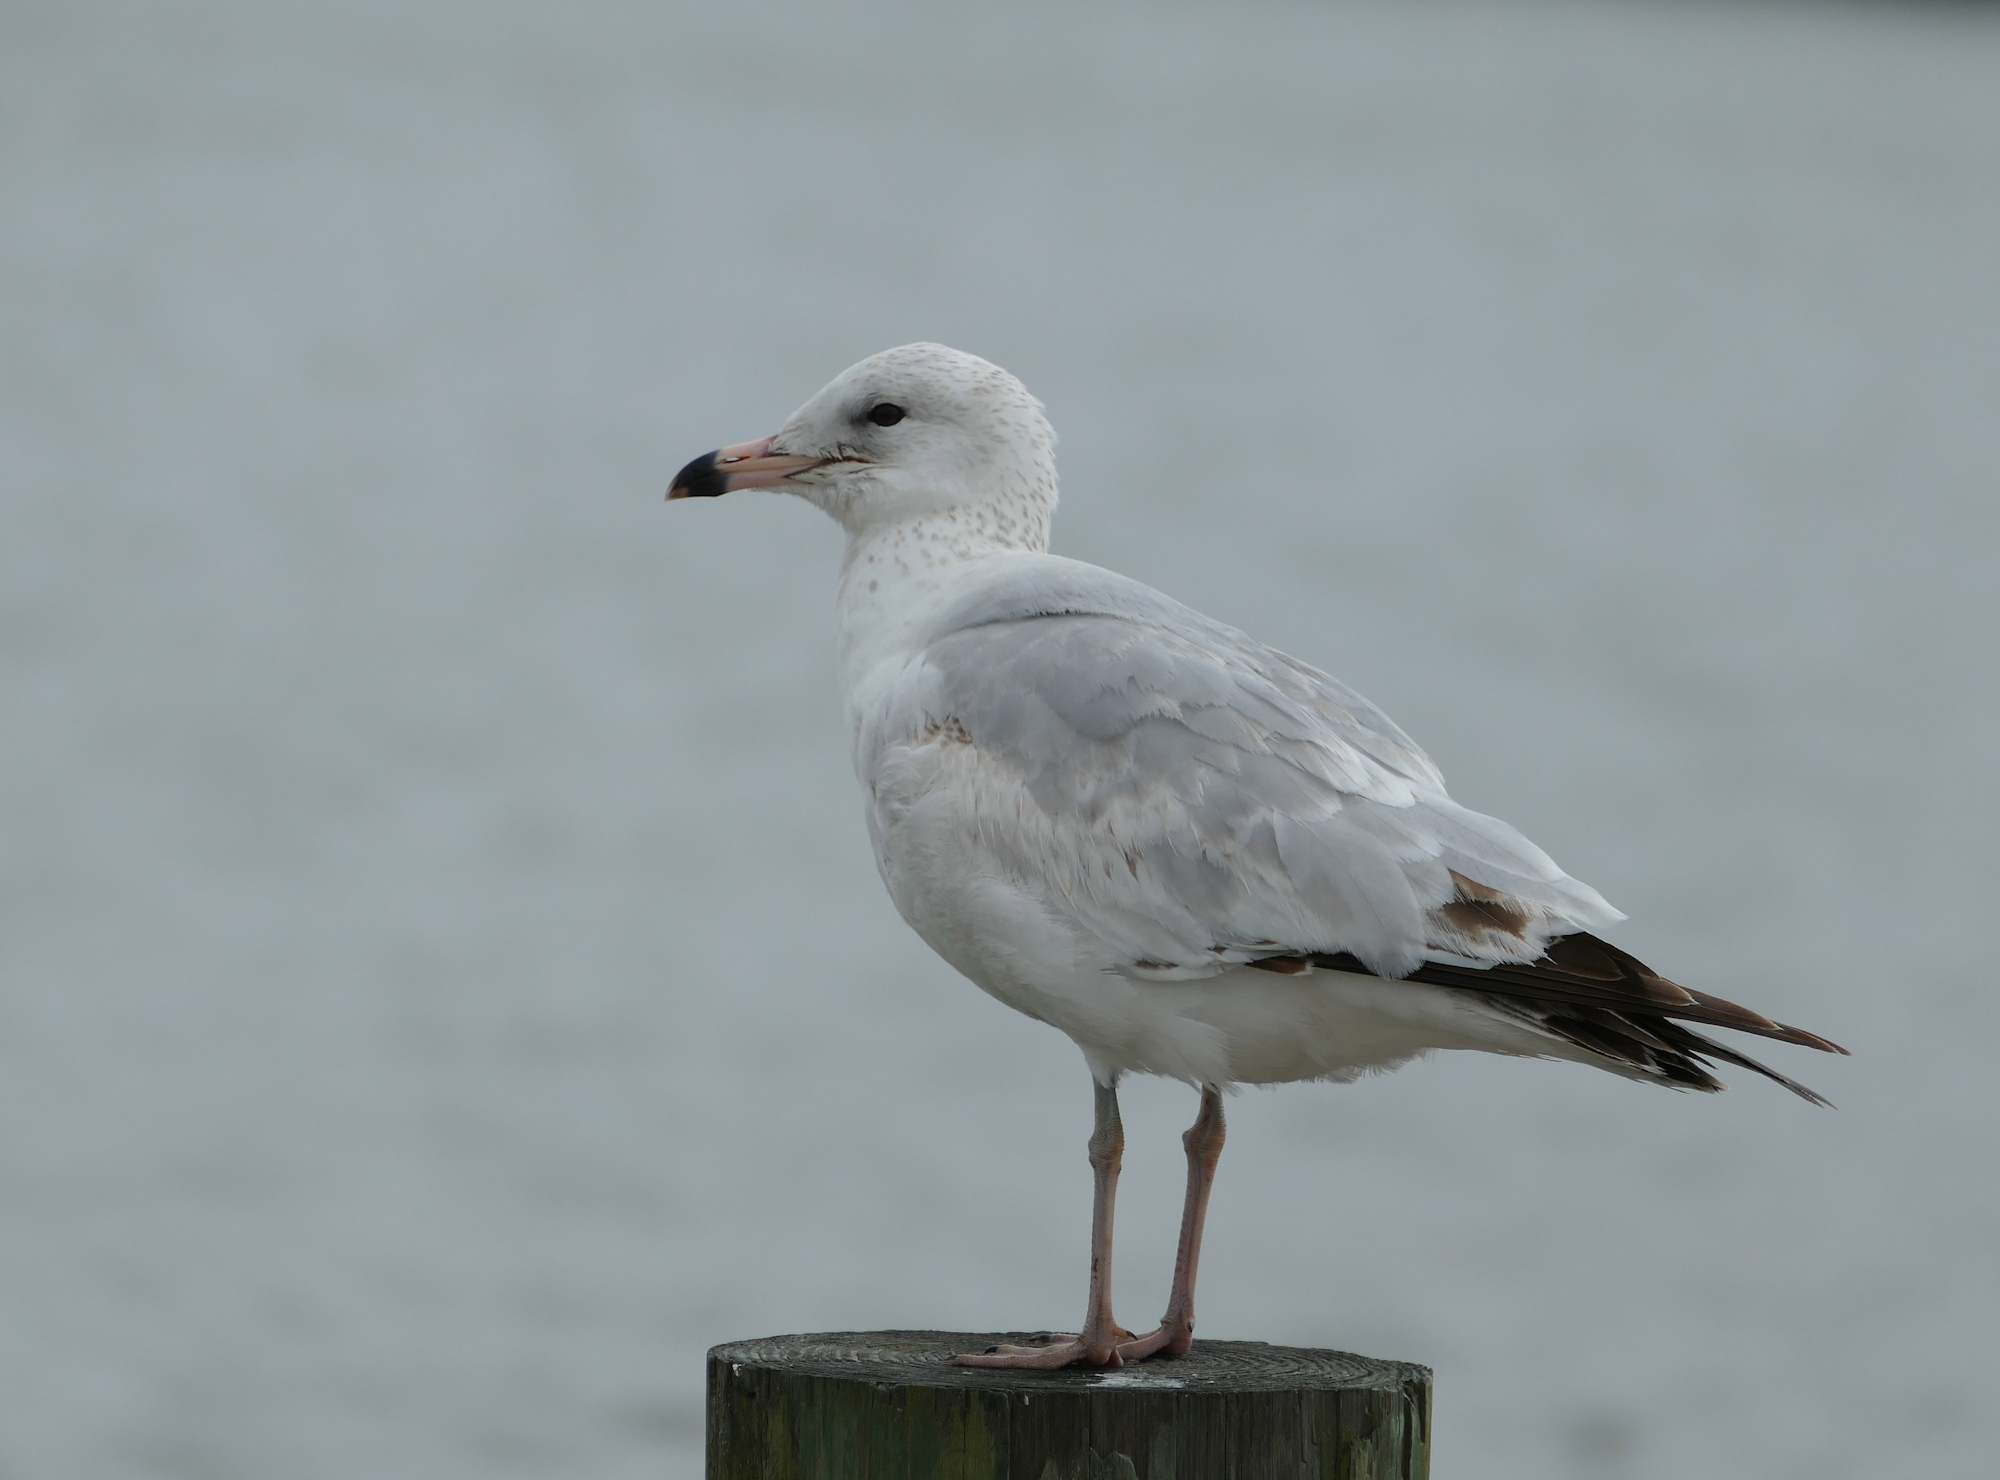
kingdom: Animalia
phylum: Chordata
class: Aves
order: Charadriiformes
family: Laridae
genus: Larus
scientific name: Larus delawarensis
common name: Ring-billed gull
